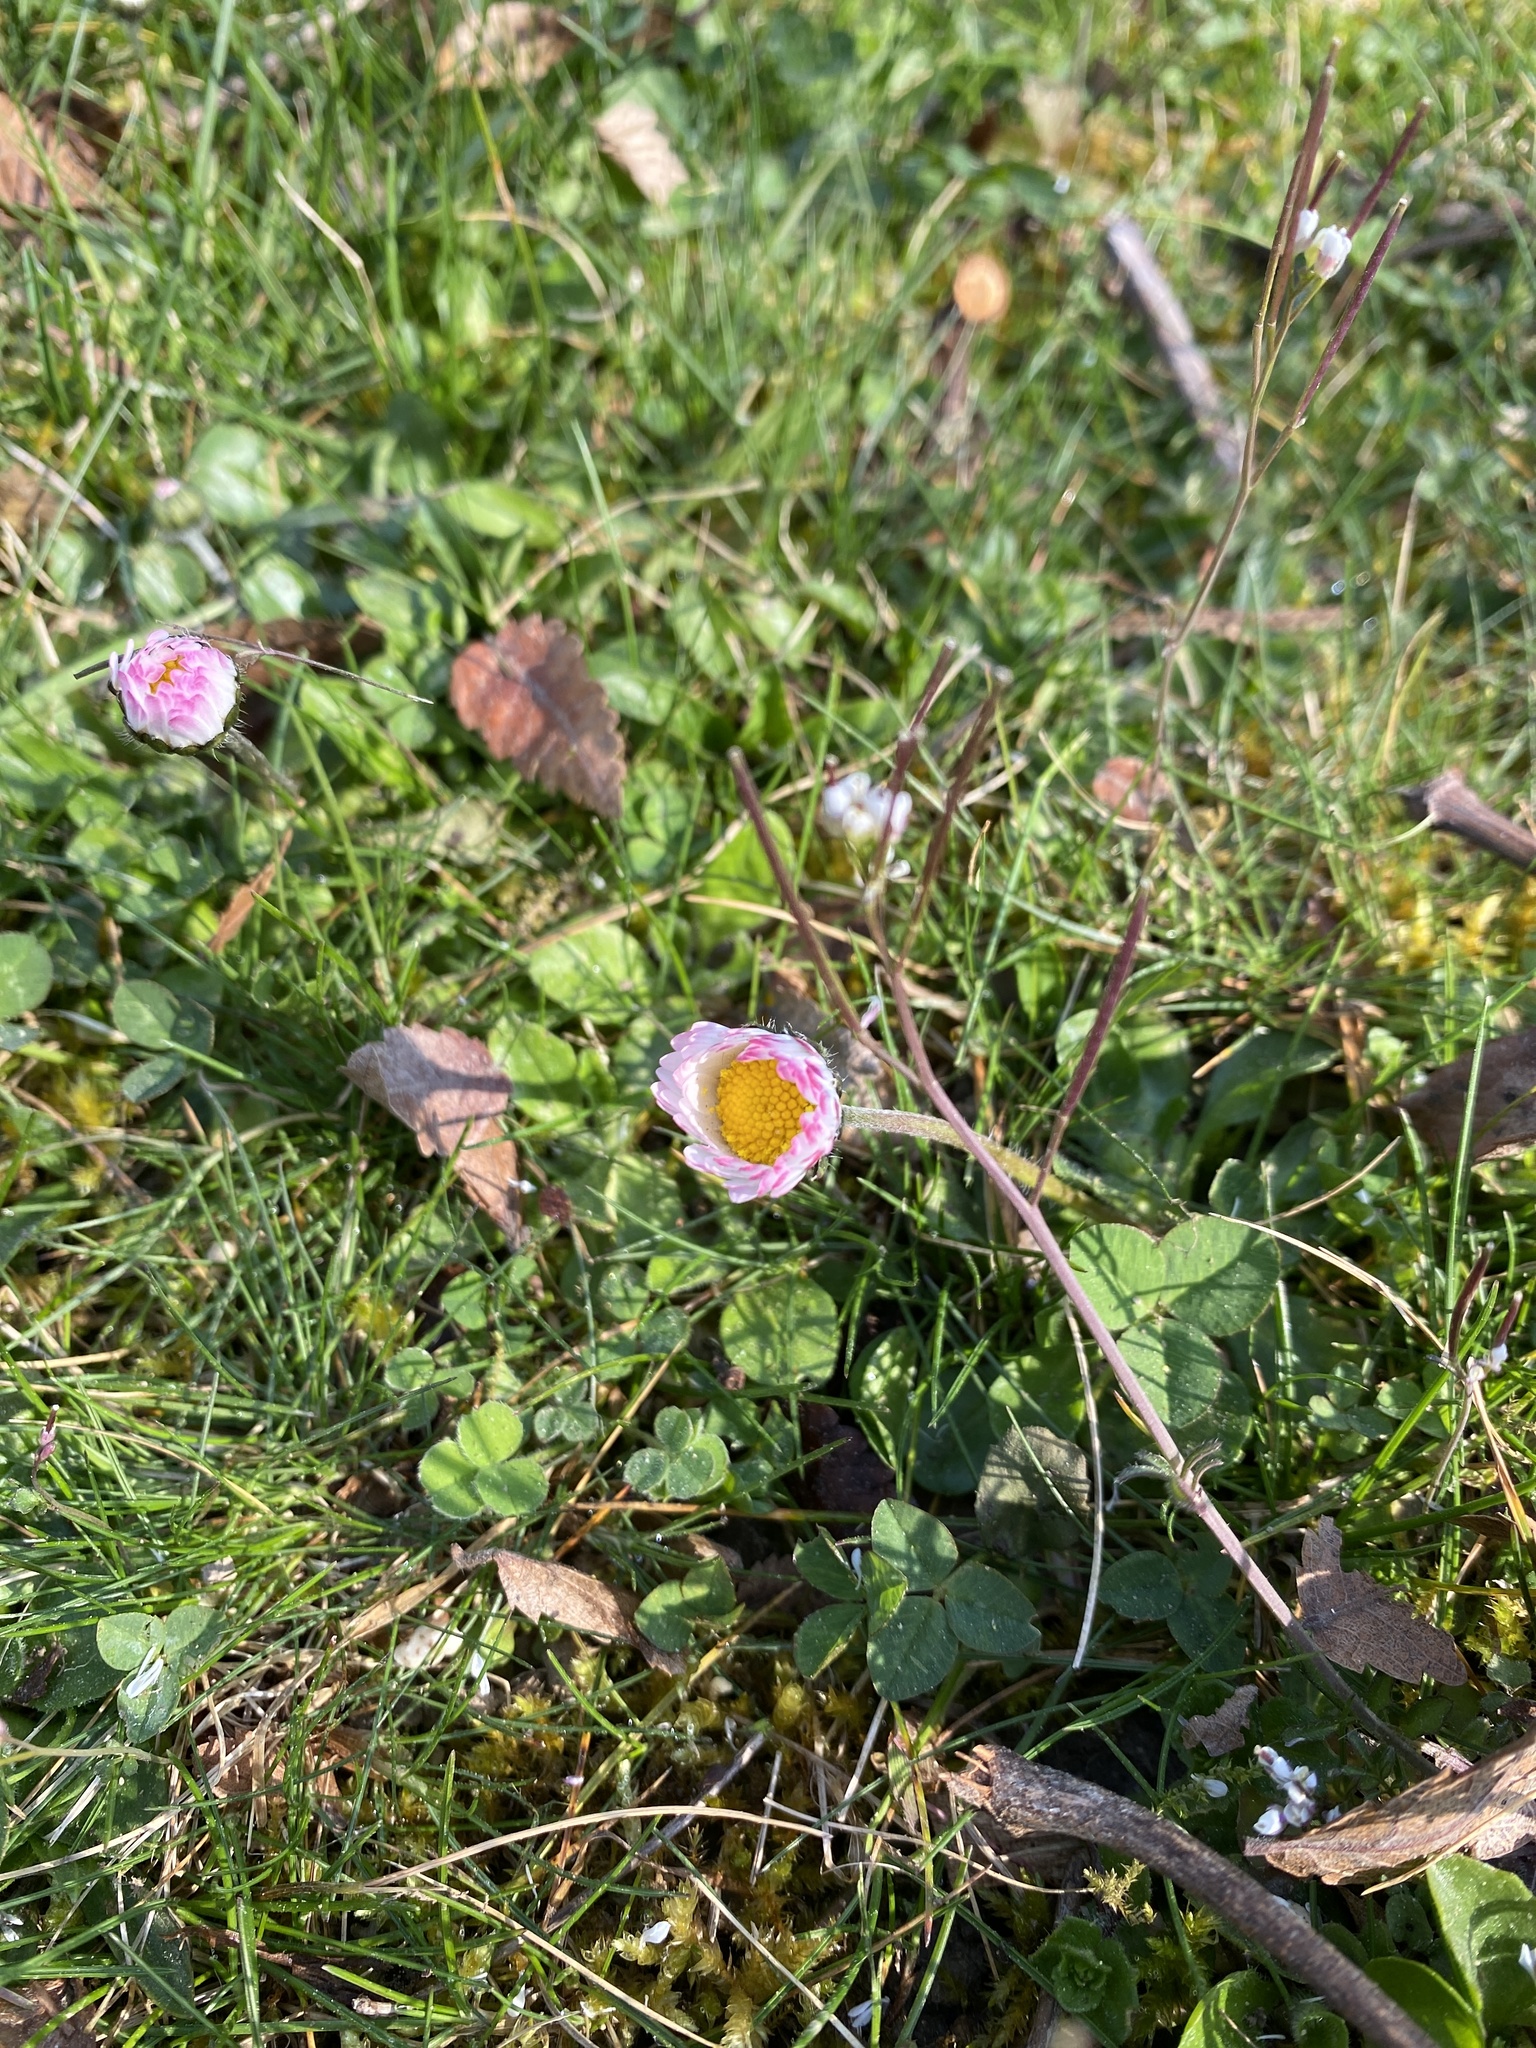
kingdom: Plantae
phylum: Tracheophyta
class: Magnoliopsida
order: Asterales
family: Asteraceae
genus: Bellis
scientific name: Bellis perennis
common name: Lawndaisy
